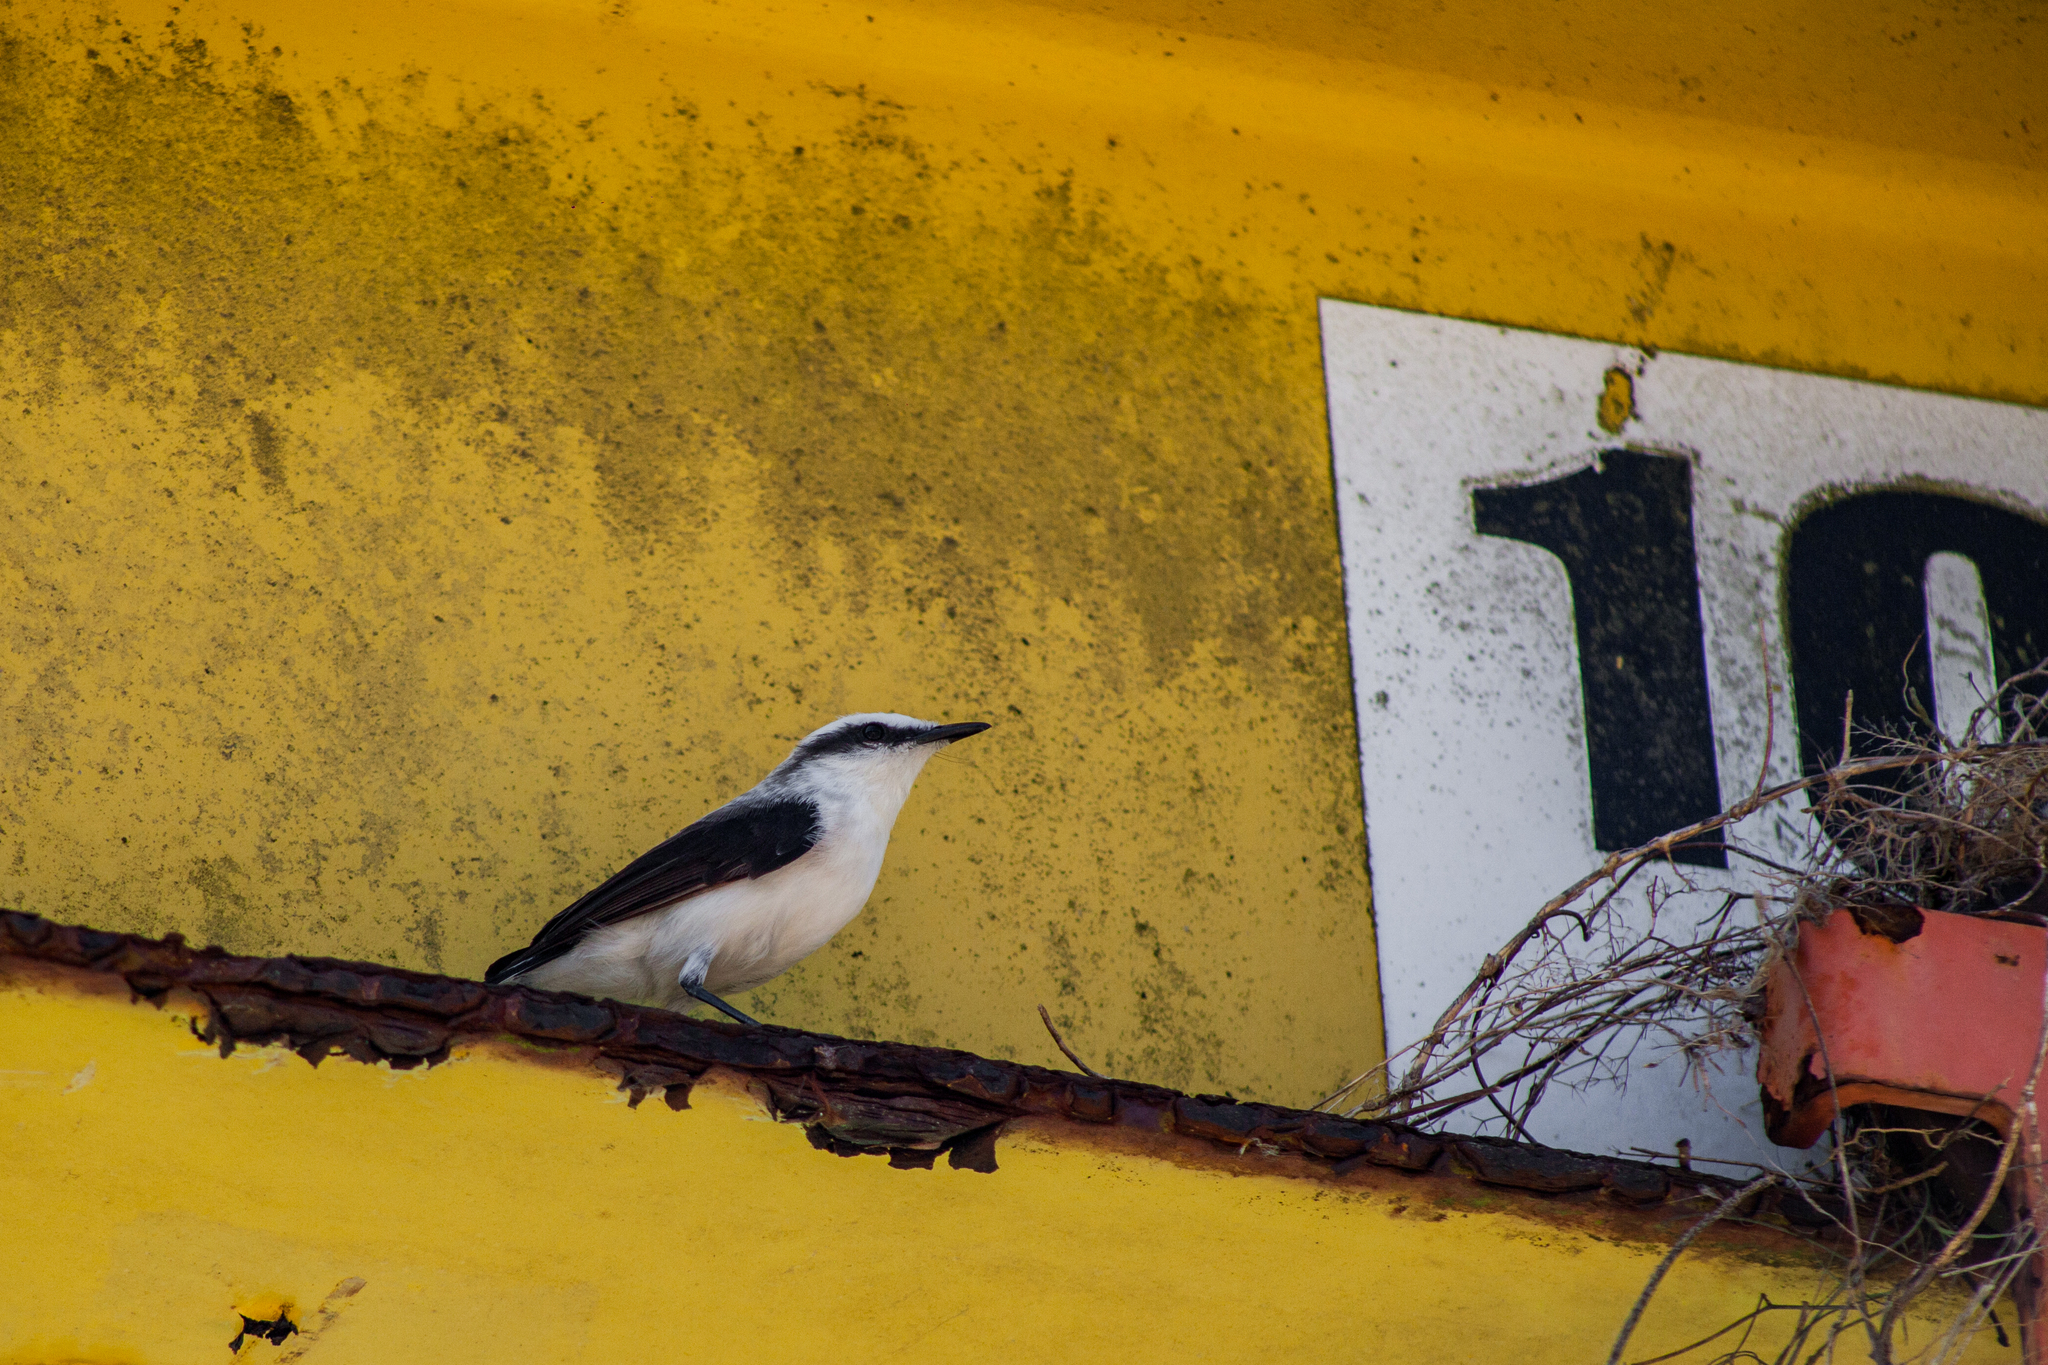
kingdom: Animalia
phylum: Chordata
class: Aves
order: Passeriformes
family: Tyrannidae
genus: Fluvicola
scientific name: Fluvicola nengeta
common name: Masked water tyrant
